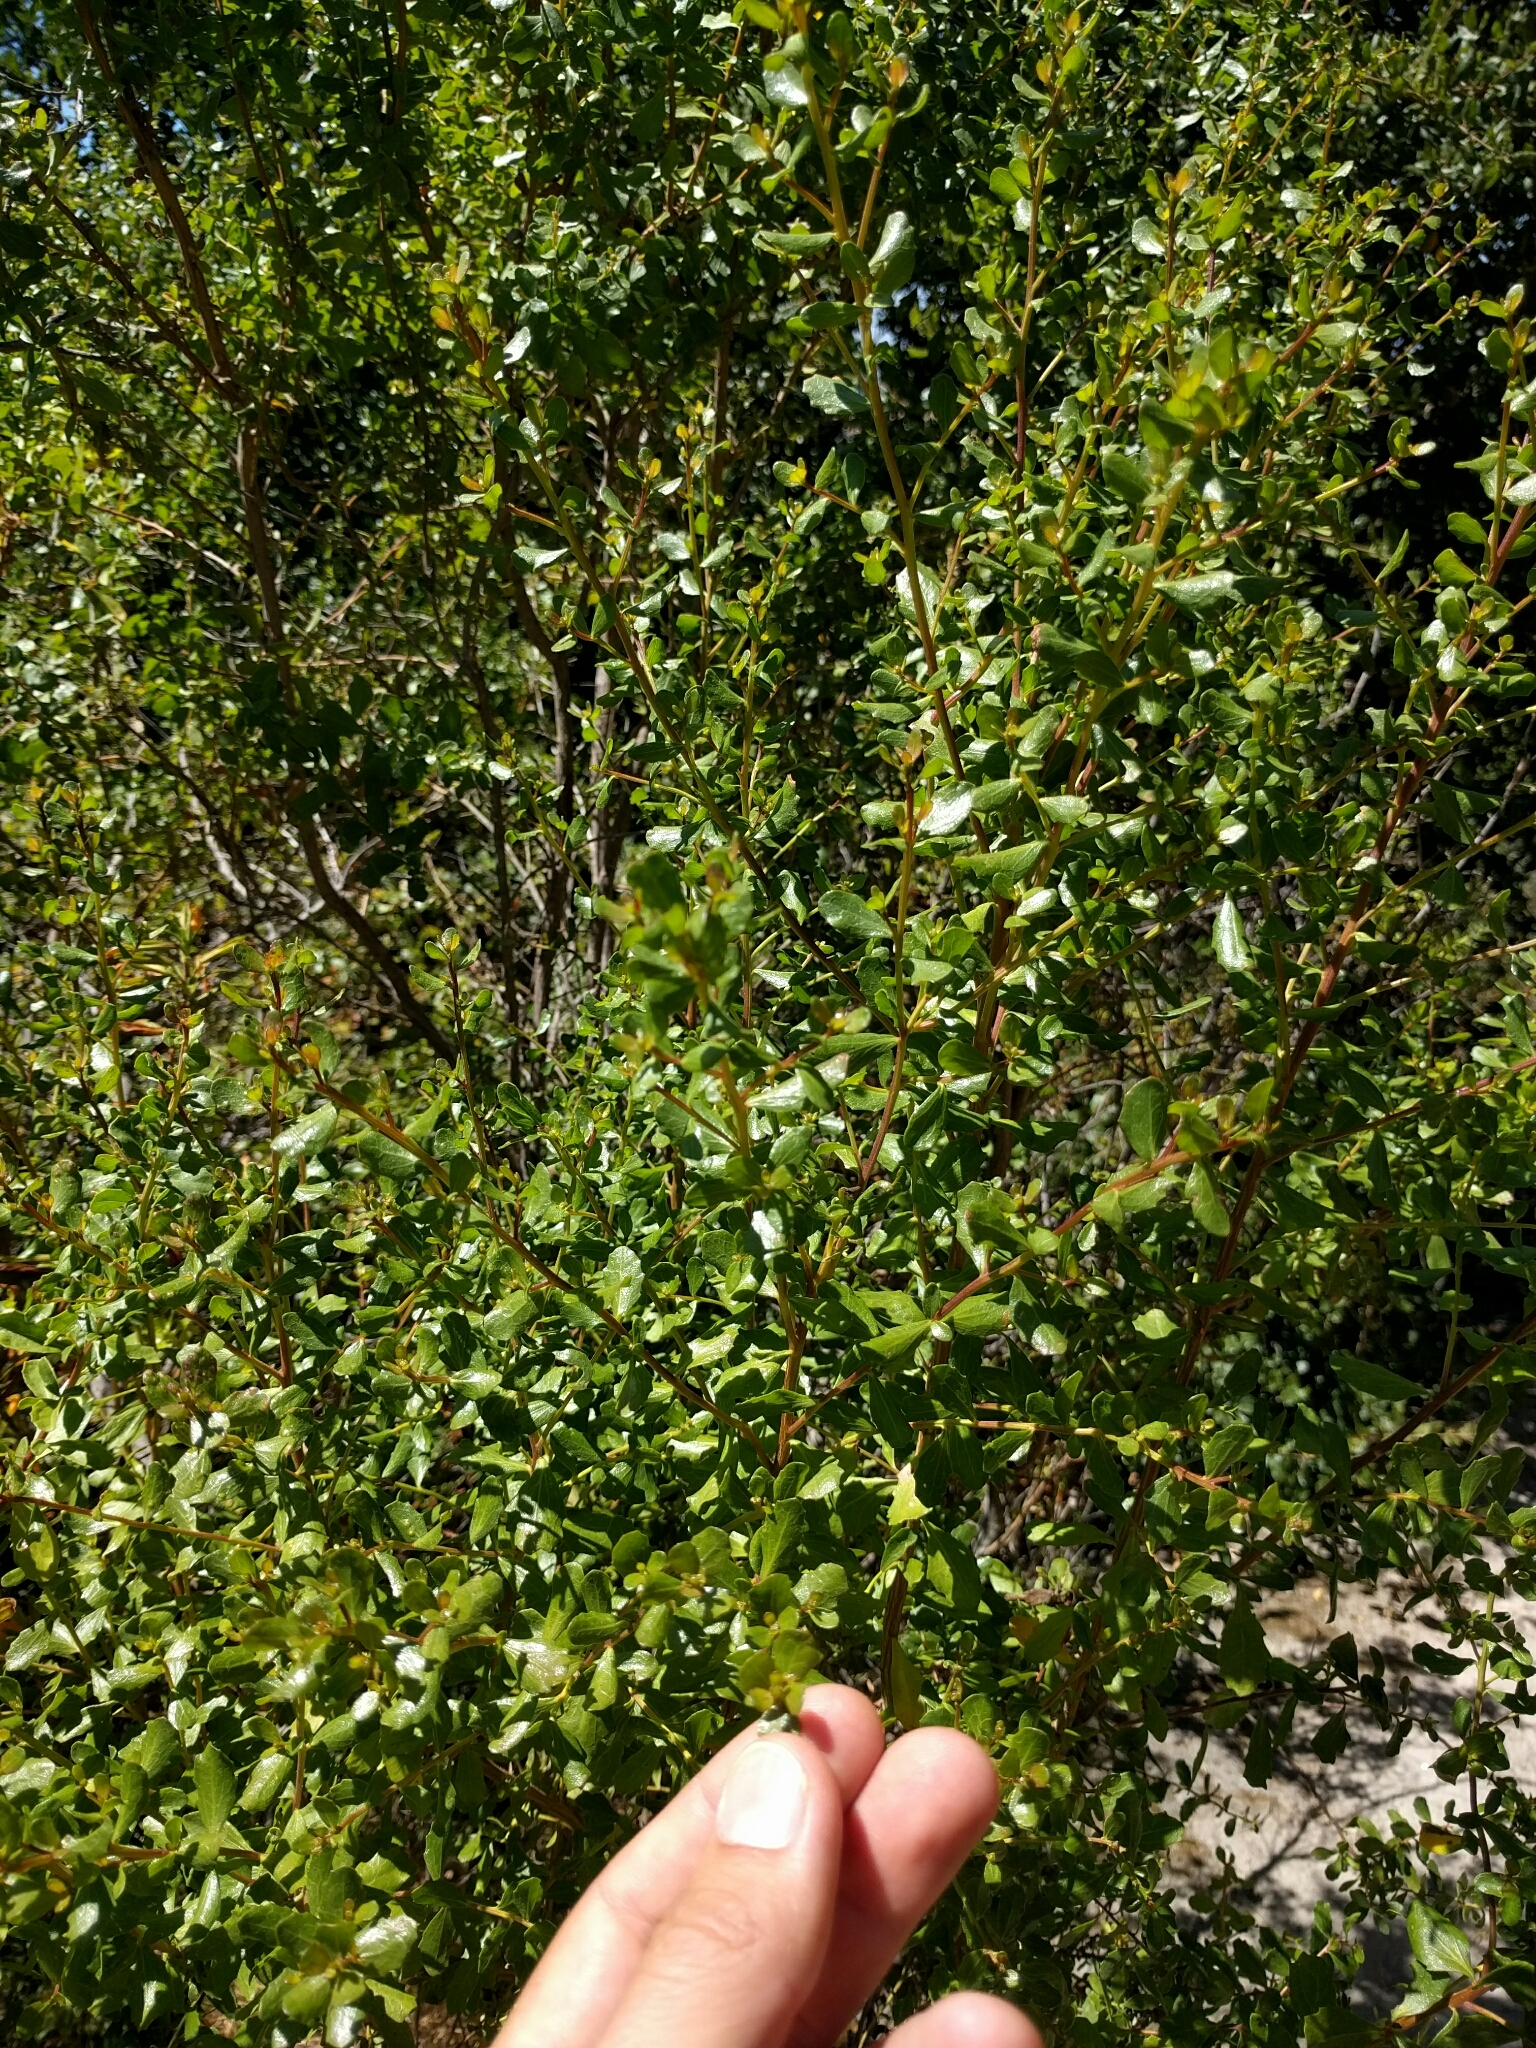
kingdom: Plantae
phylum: Tracheophyta
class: Magnoliopsida
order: Asterales
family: Asteraceae
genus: Baccharis
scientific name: Baccharis pilularis
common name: Coyotebrush
